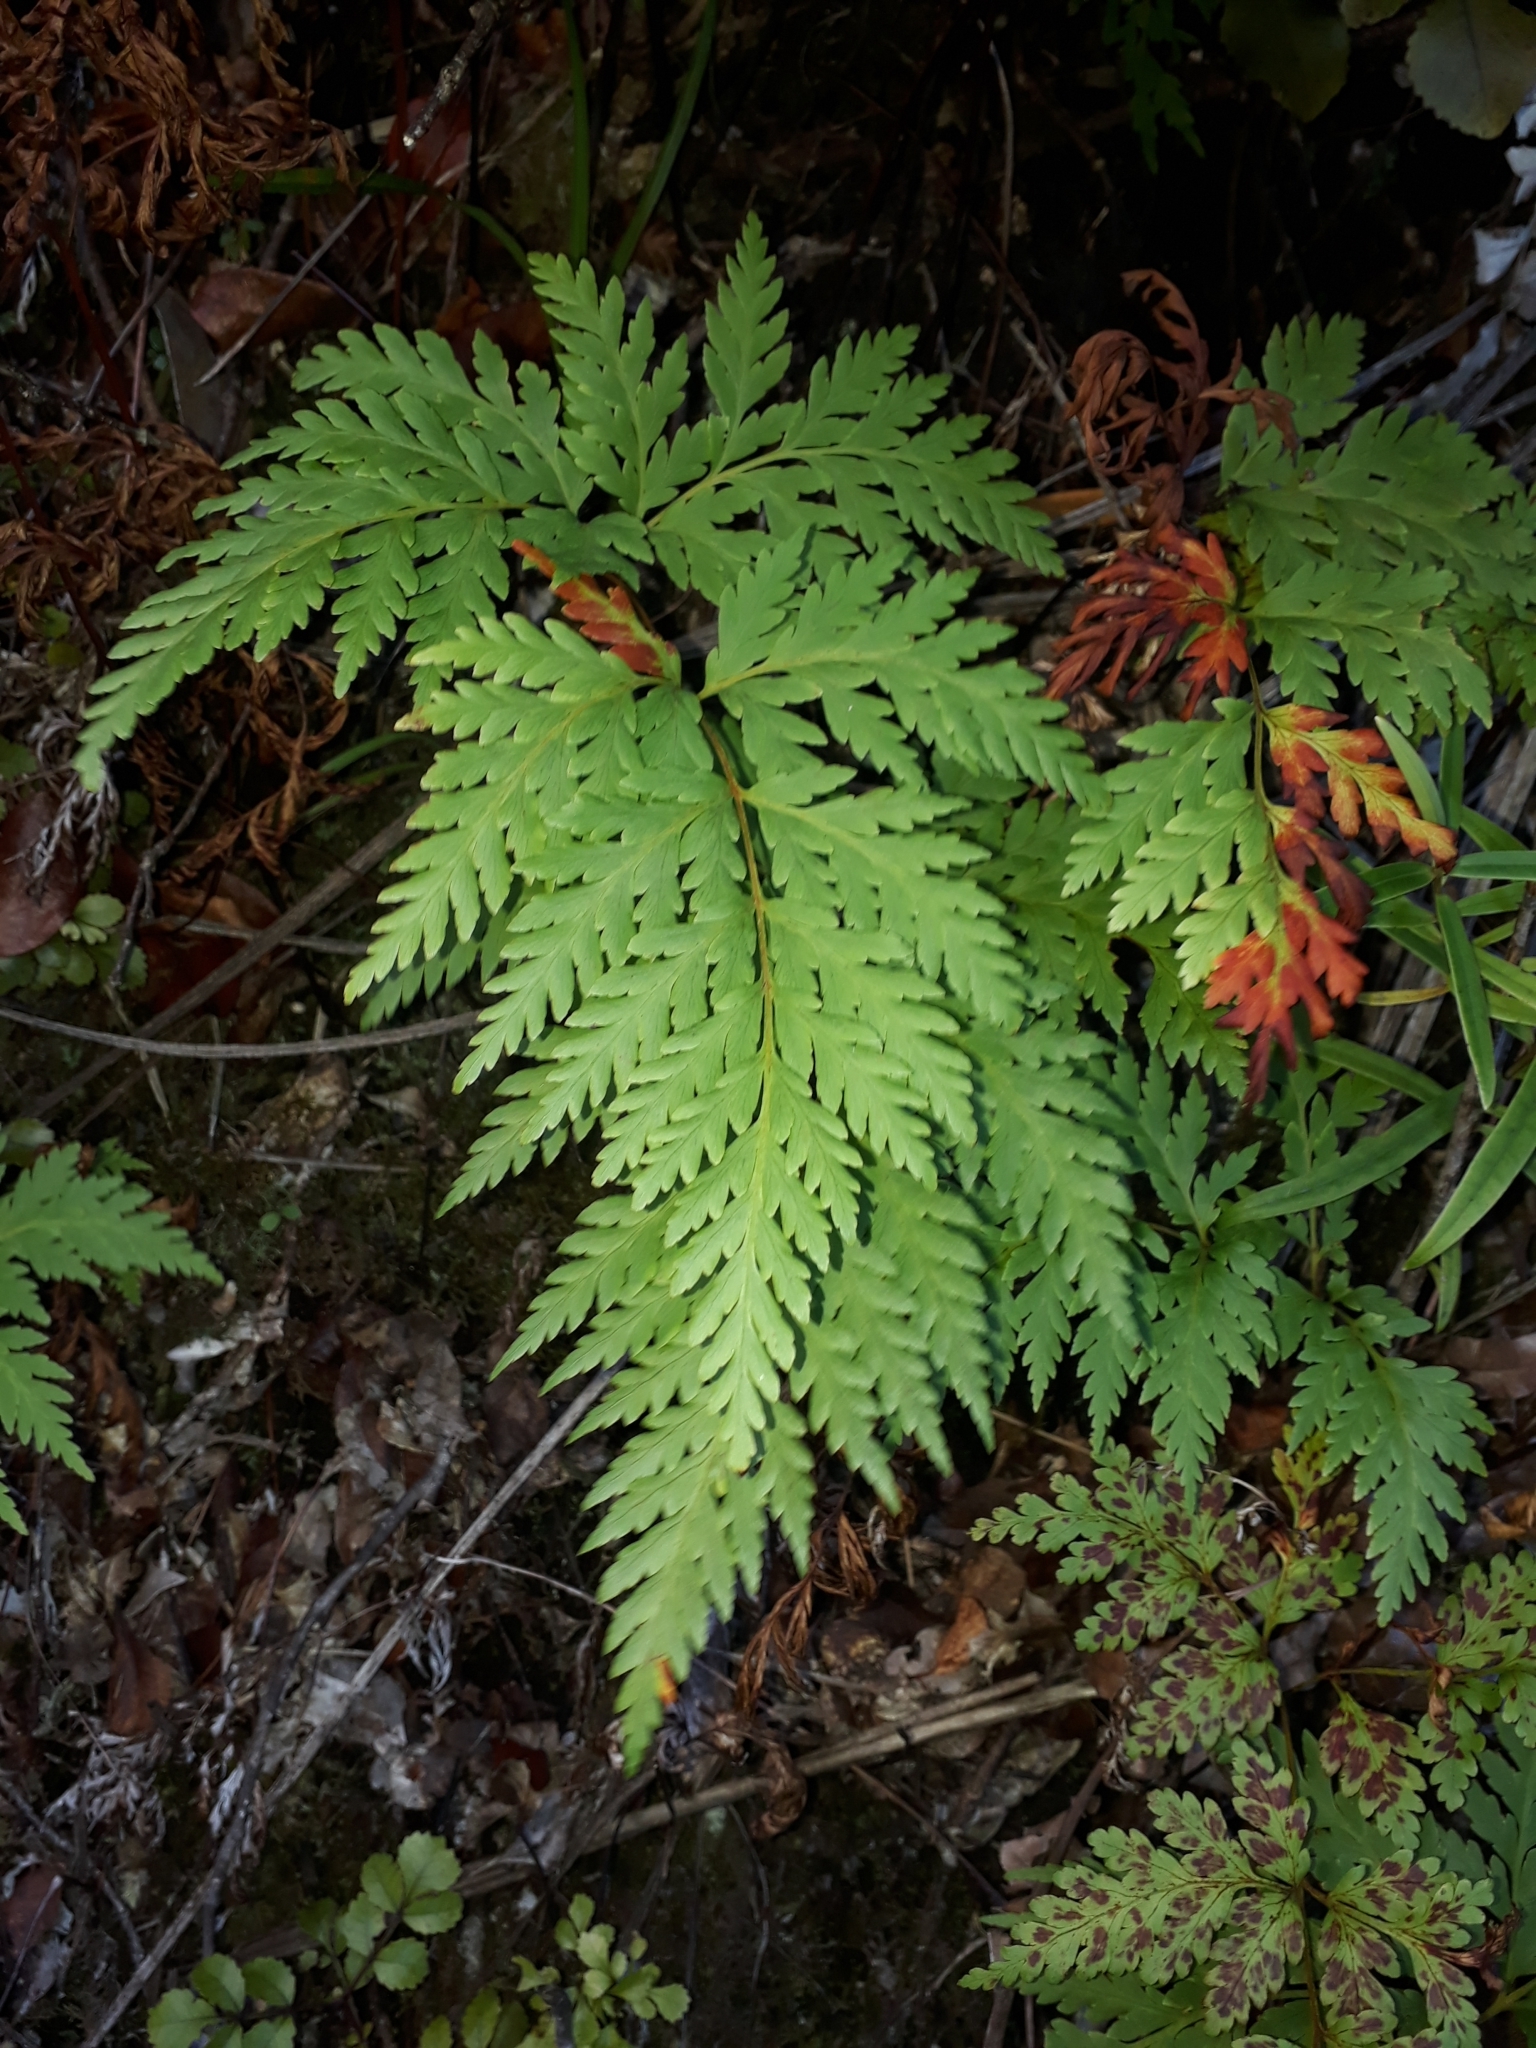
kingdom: Plantae
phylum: Tracheophyta
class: Polypodiopsida
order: Cyatheales
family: Loxsomataceae
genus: Loxsoma
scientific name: Loxsoma cunninghamii
